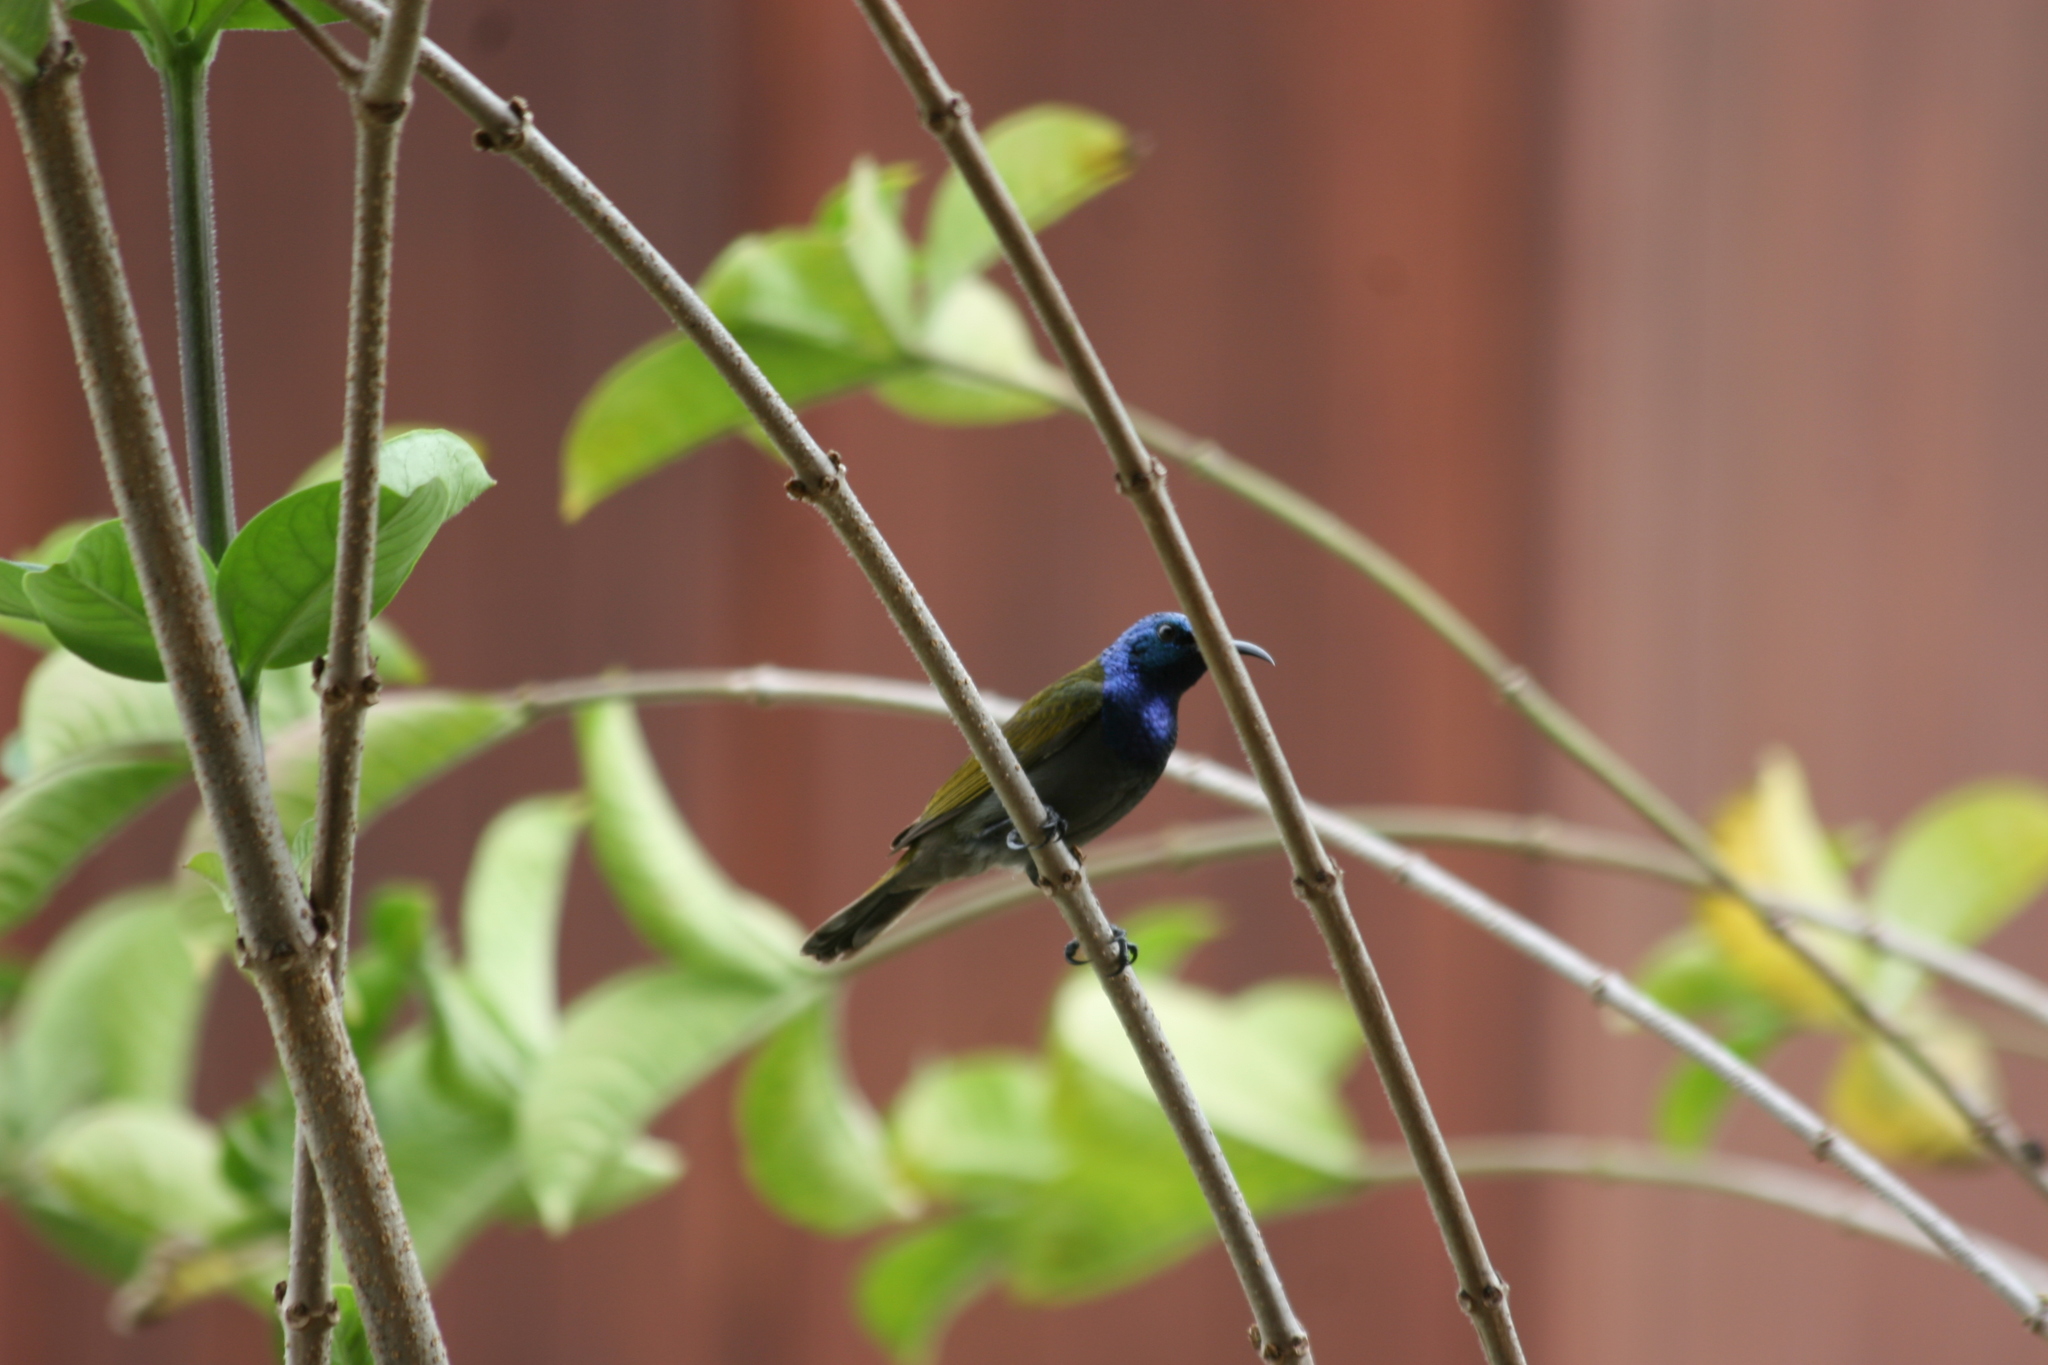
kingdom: Animalia
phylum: Chordata
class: Aves
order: Passeriformes
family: Nectariniidae
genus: Cyanomitra
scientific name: Cyanomitra verticalis
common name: Green-headed sunbird
